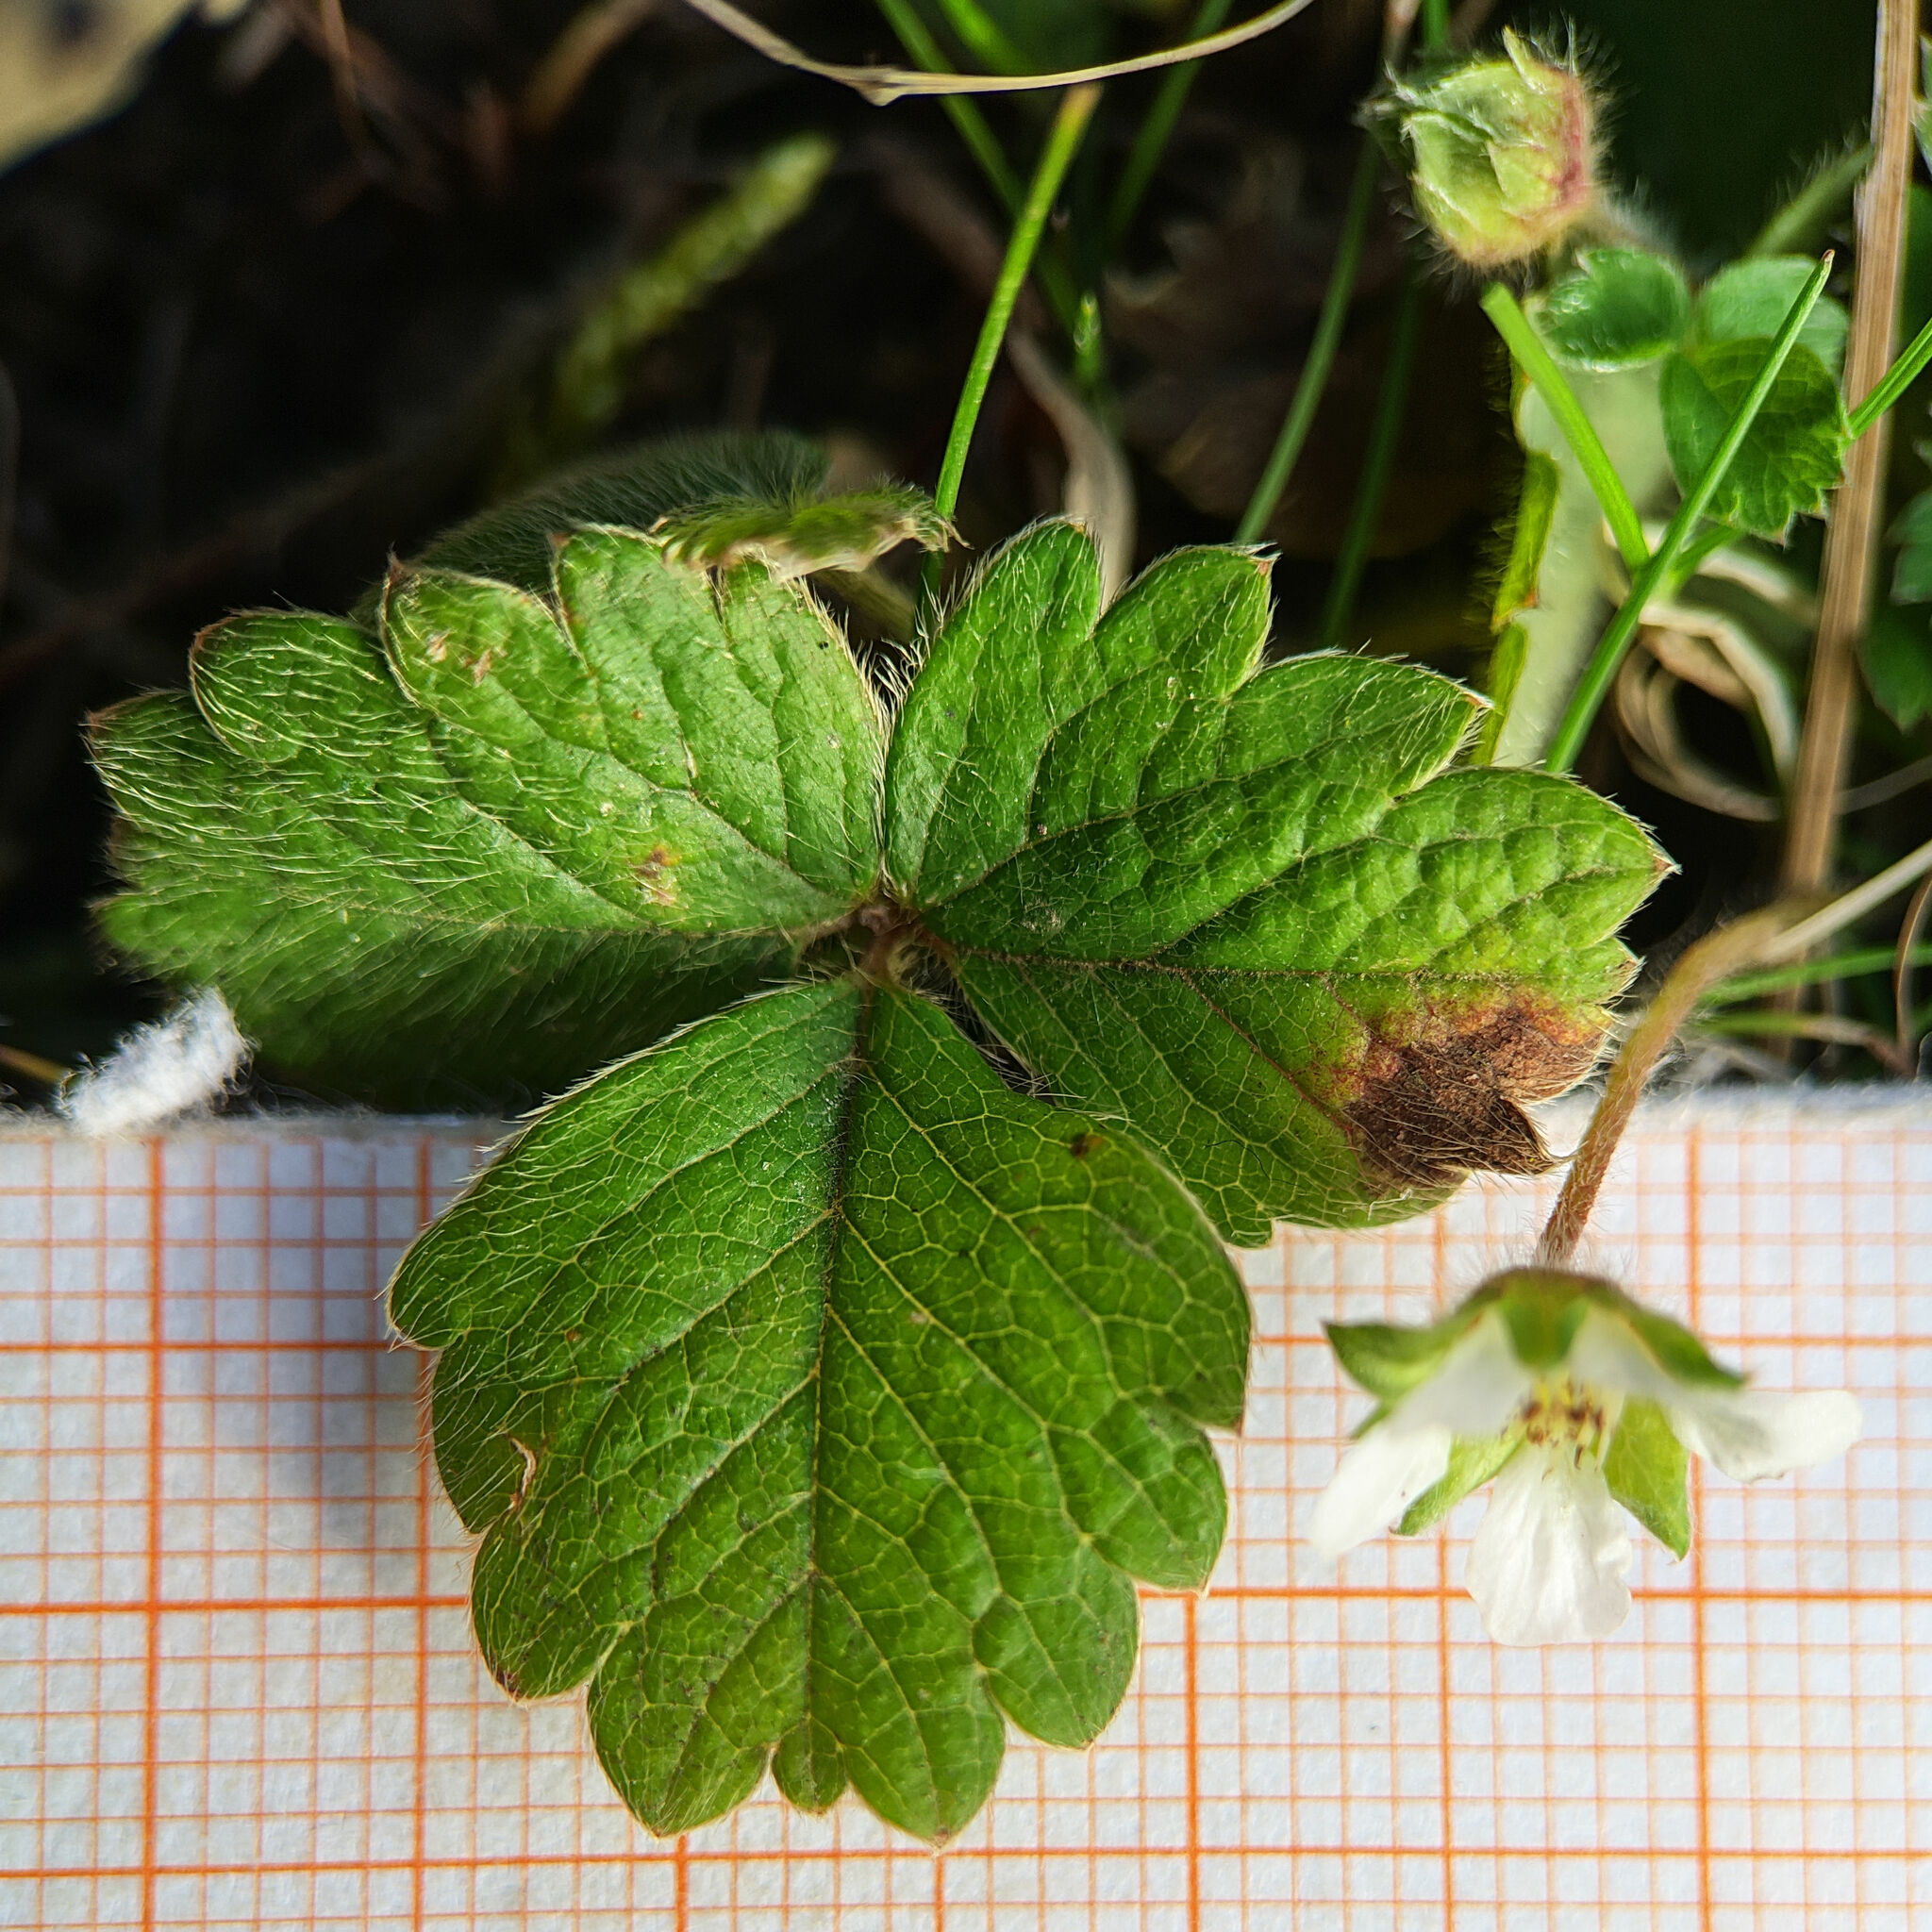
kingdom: Plantae
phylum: Tracheophyta
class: Magnoliopsida
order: Rosales
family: Rosaceae
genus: Potentilla
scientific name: Potentilla sterilis
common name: Barren strawberry
